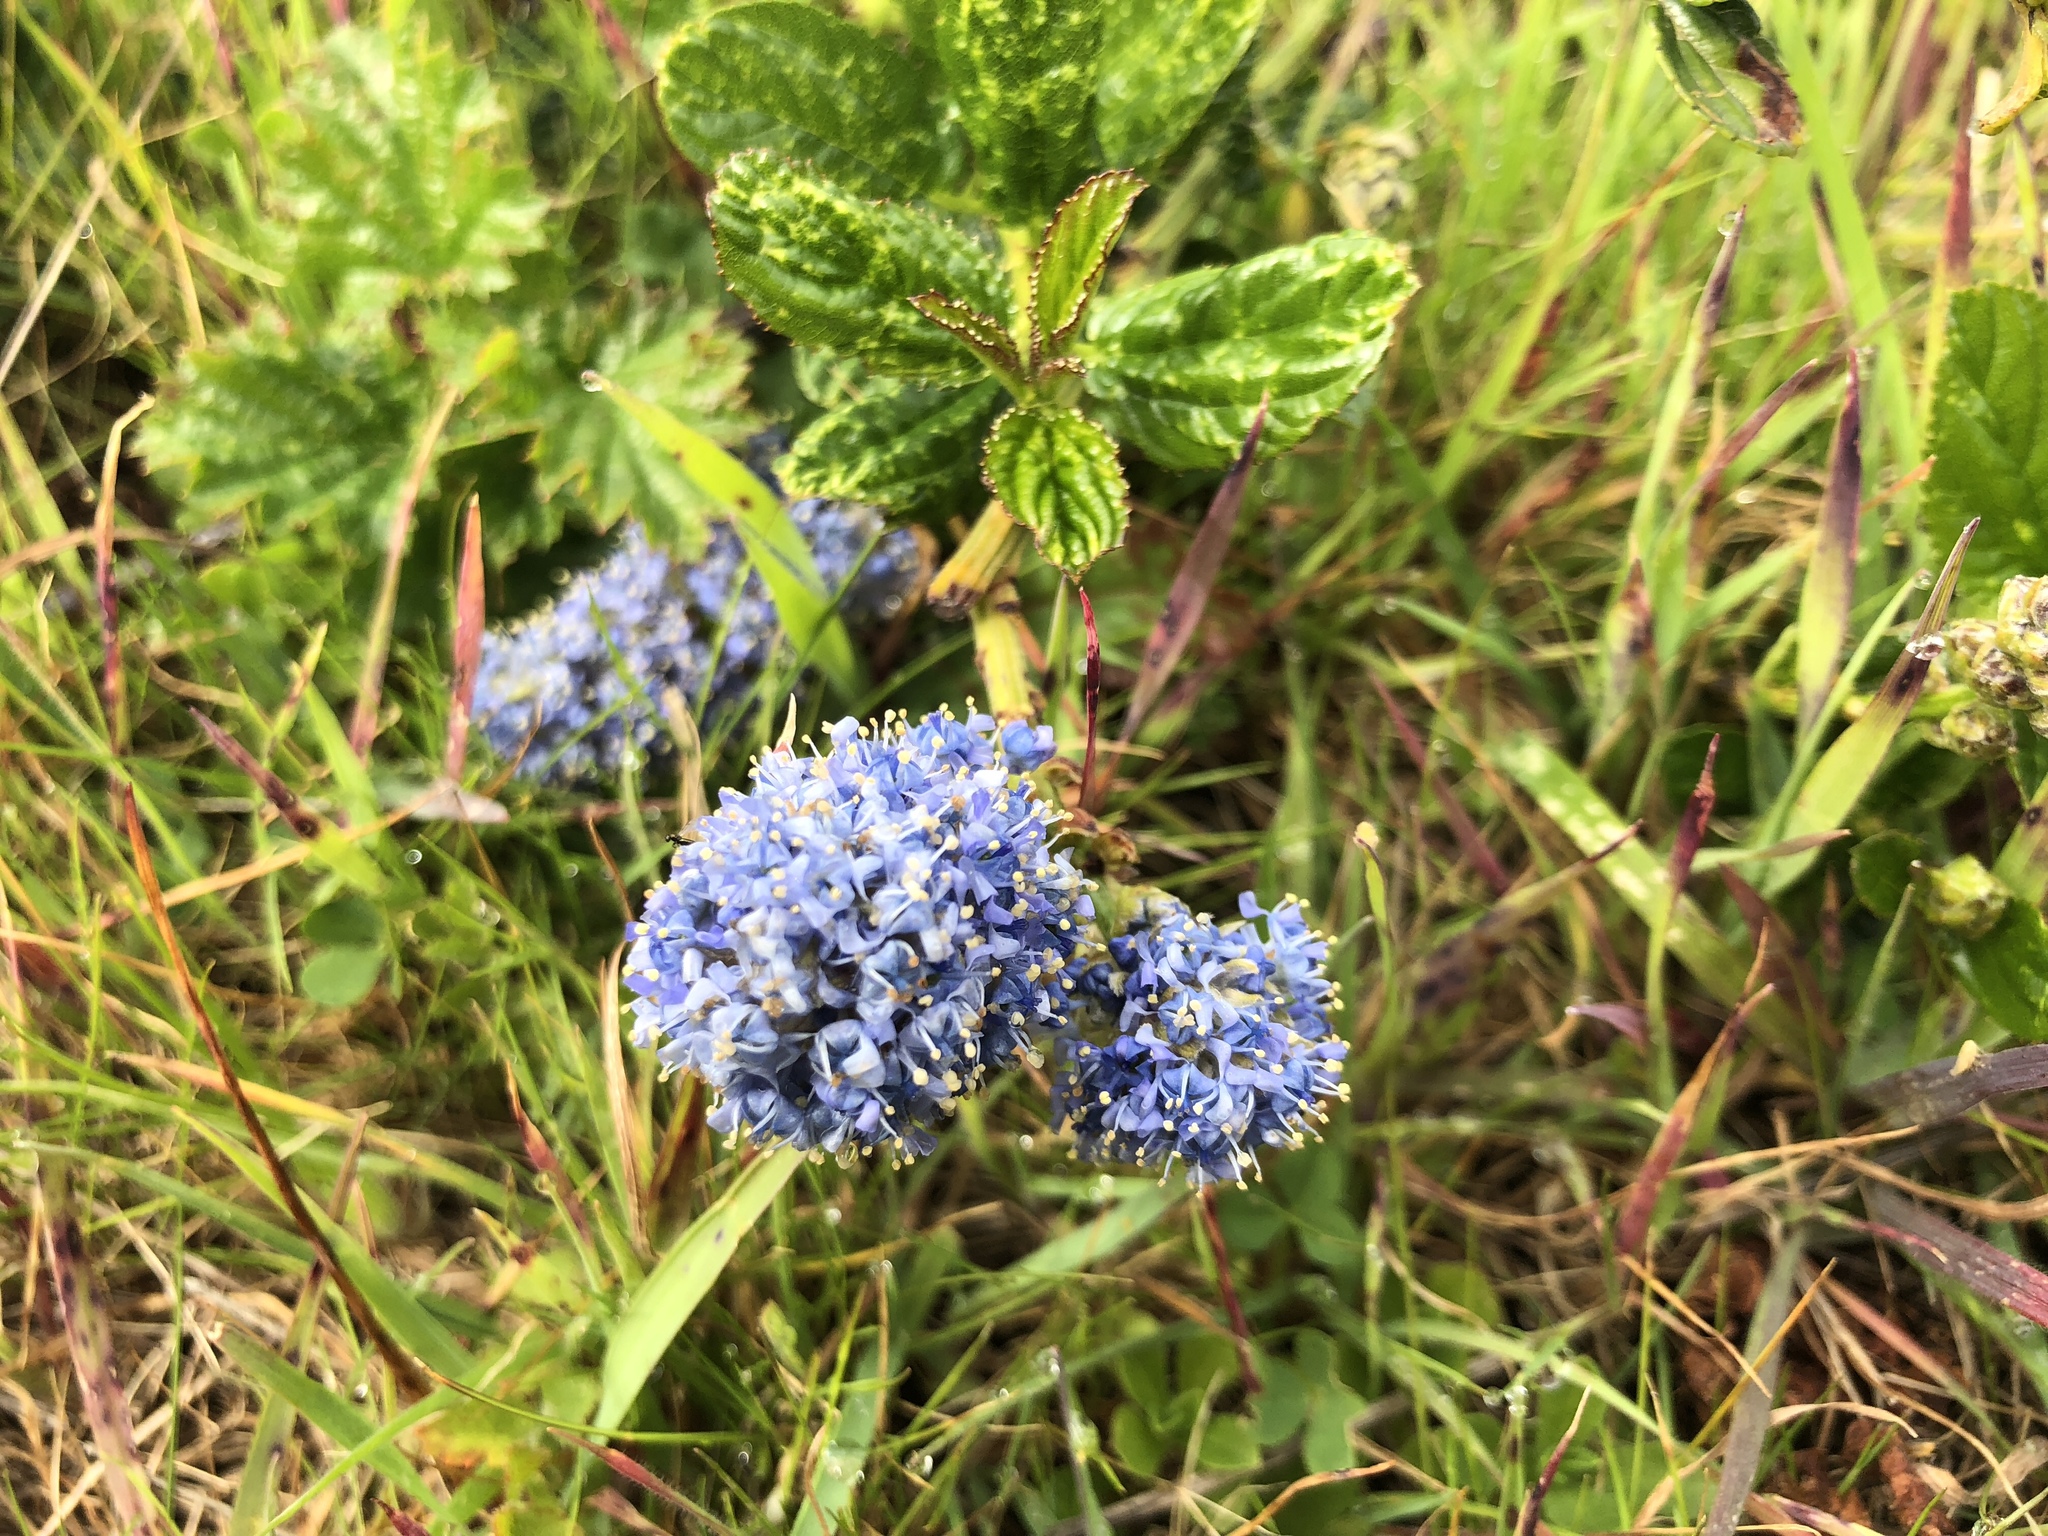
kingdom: Plantae
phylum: Tracheophyta
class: Magnoliopsida
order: Rosales
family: Rhamnaceae
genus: Ceanothus
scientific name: Ceanothus thyrsiflorus
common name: California-lilac
